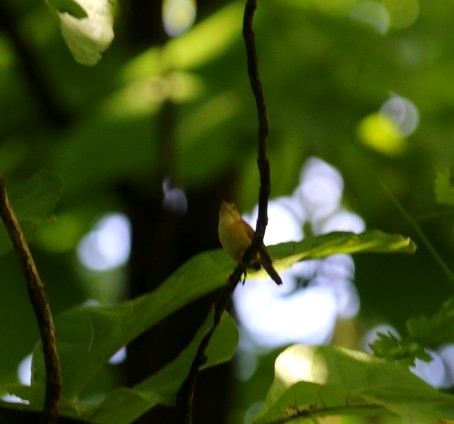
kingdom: Animalia
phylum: Chordata
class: Aves
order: Passeriformes
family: Troglodytidae
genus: Troglodytes
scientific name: Troglodytes aedon
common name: House wren
